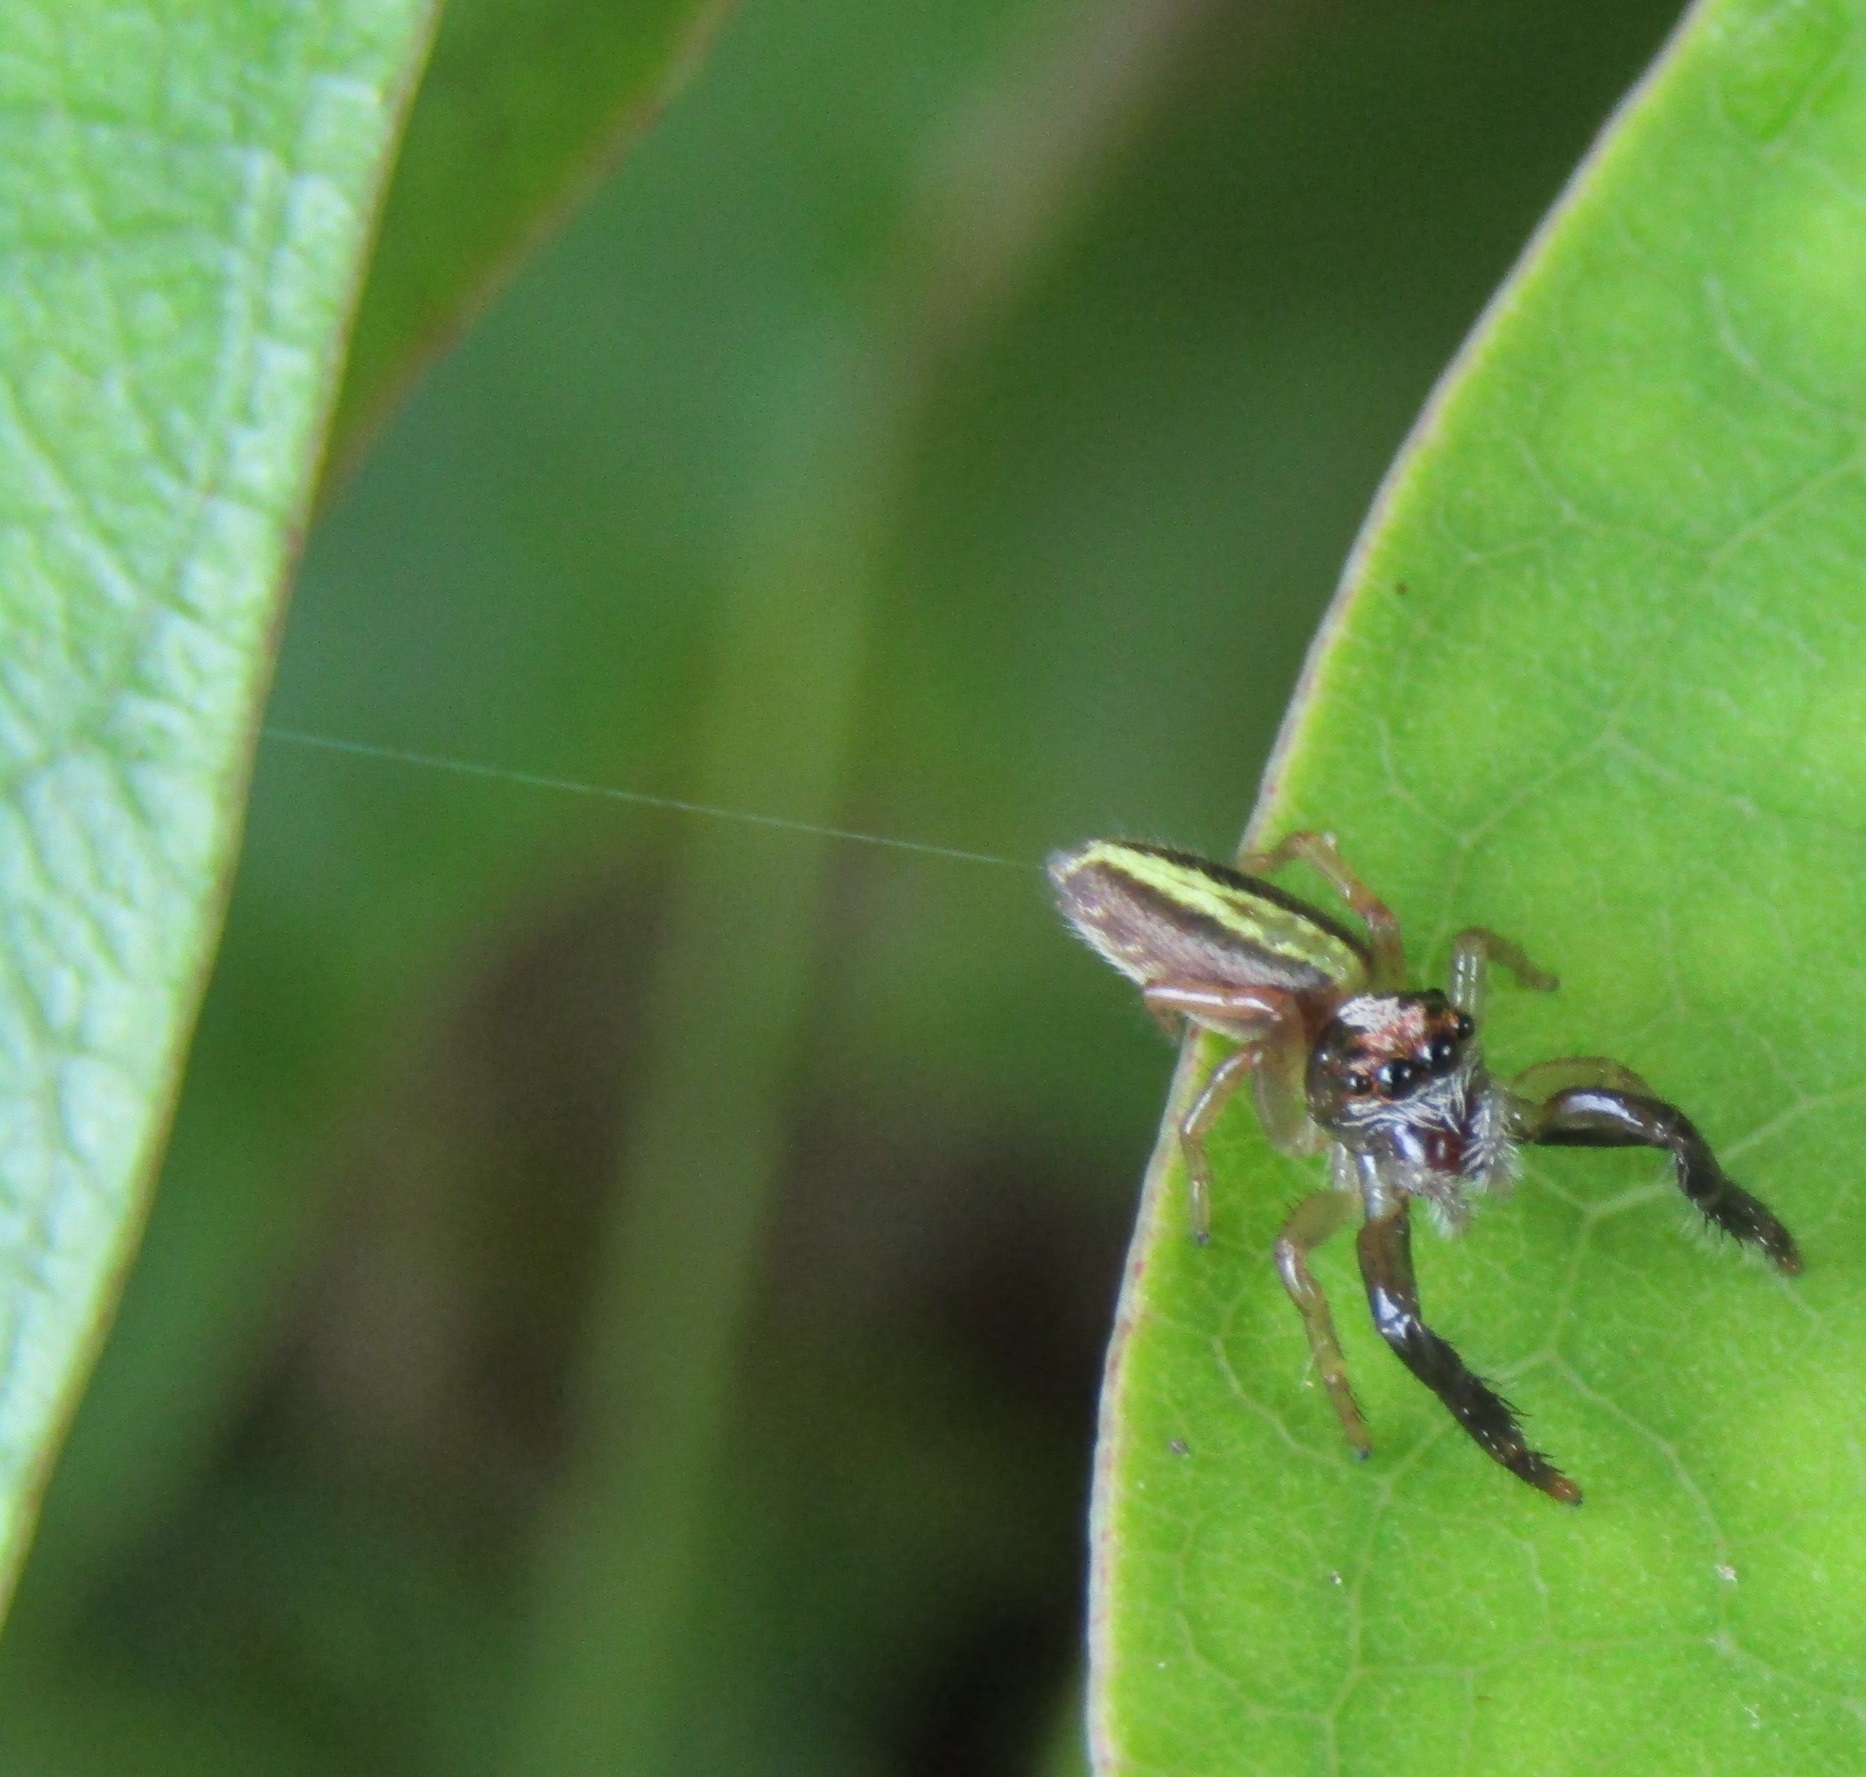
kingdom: Animalia
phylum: Arthropoda
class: Arachnida
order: Araneae
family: Salticidae
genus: Trite
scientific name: Trite planiceps
